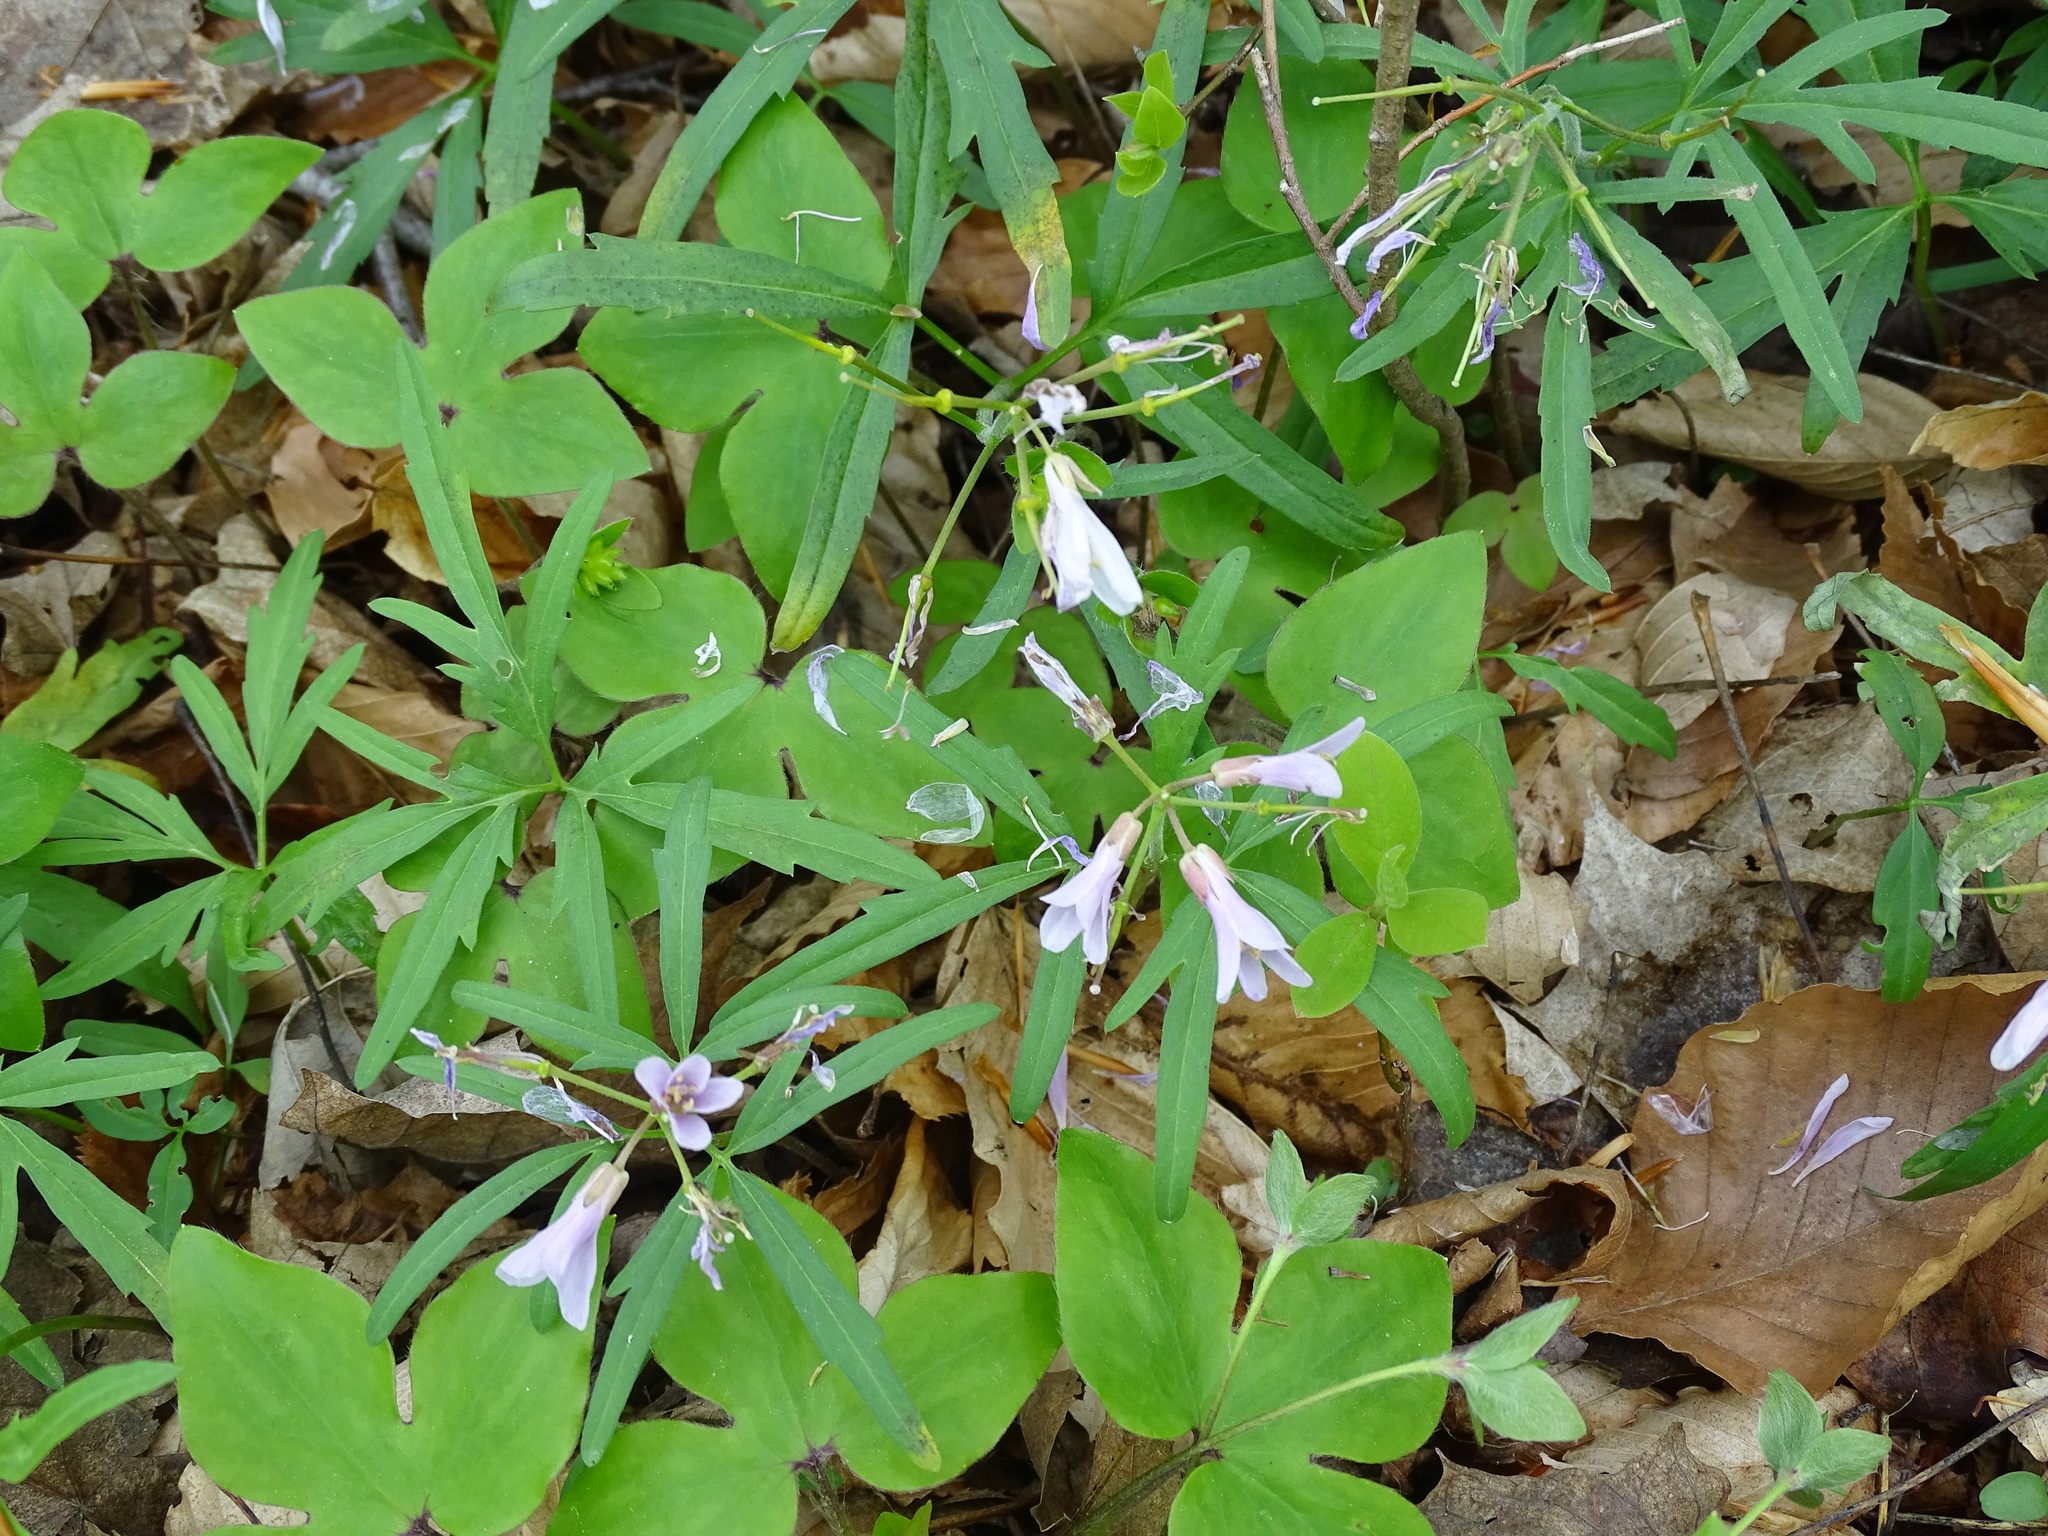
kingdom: Plantae
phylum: Tracheophyta
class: Magnoliopsida
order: Brassicales
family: Brassicaceae
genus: Cardamine
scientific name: Cardamine concatenata
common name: Cut-leaf toothcup
